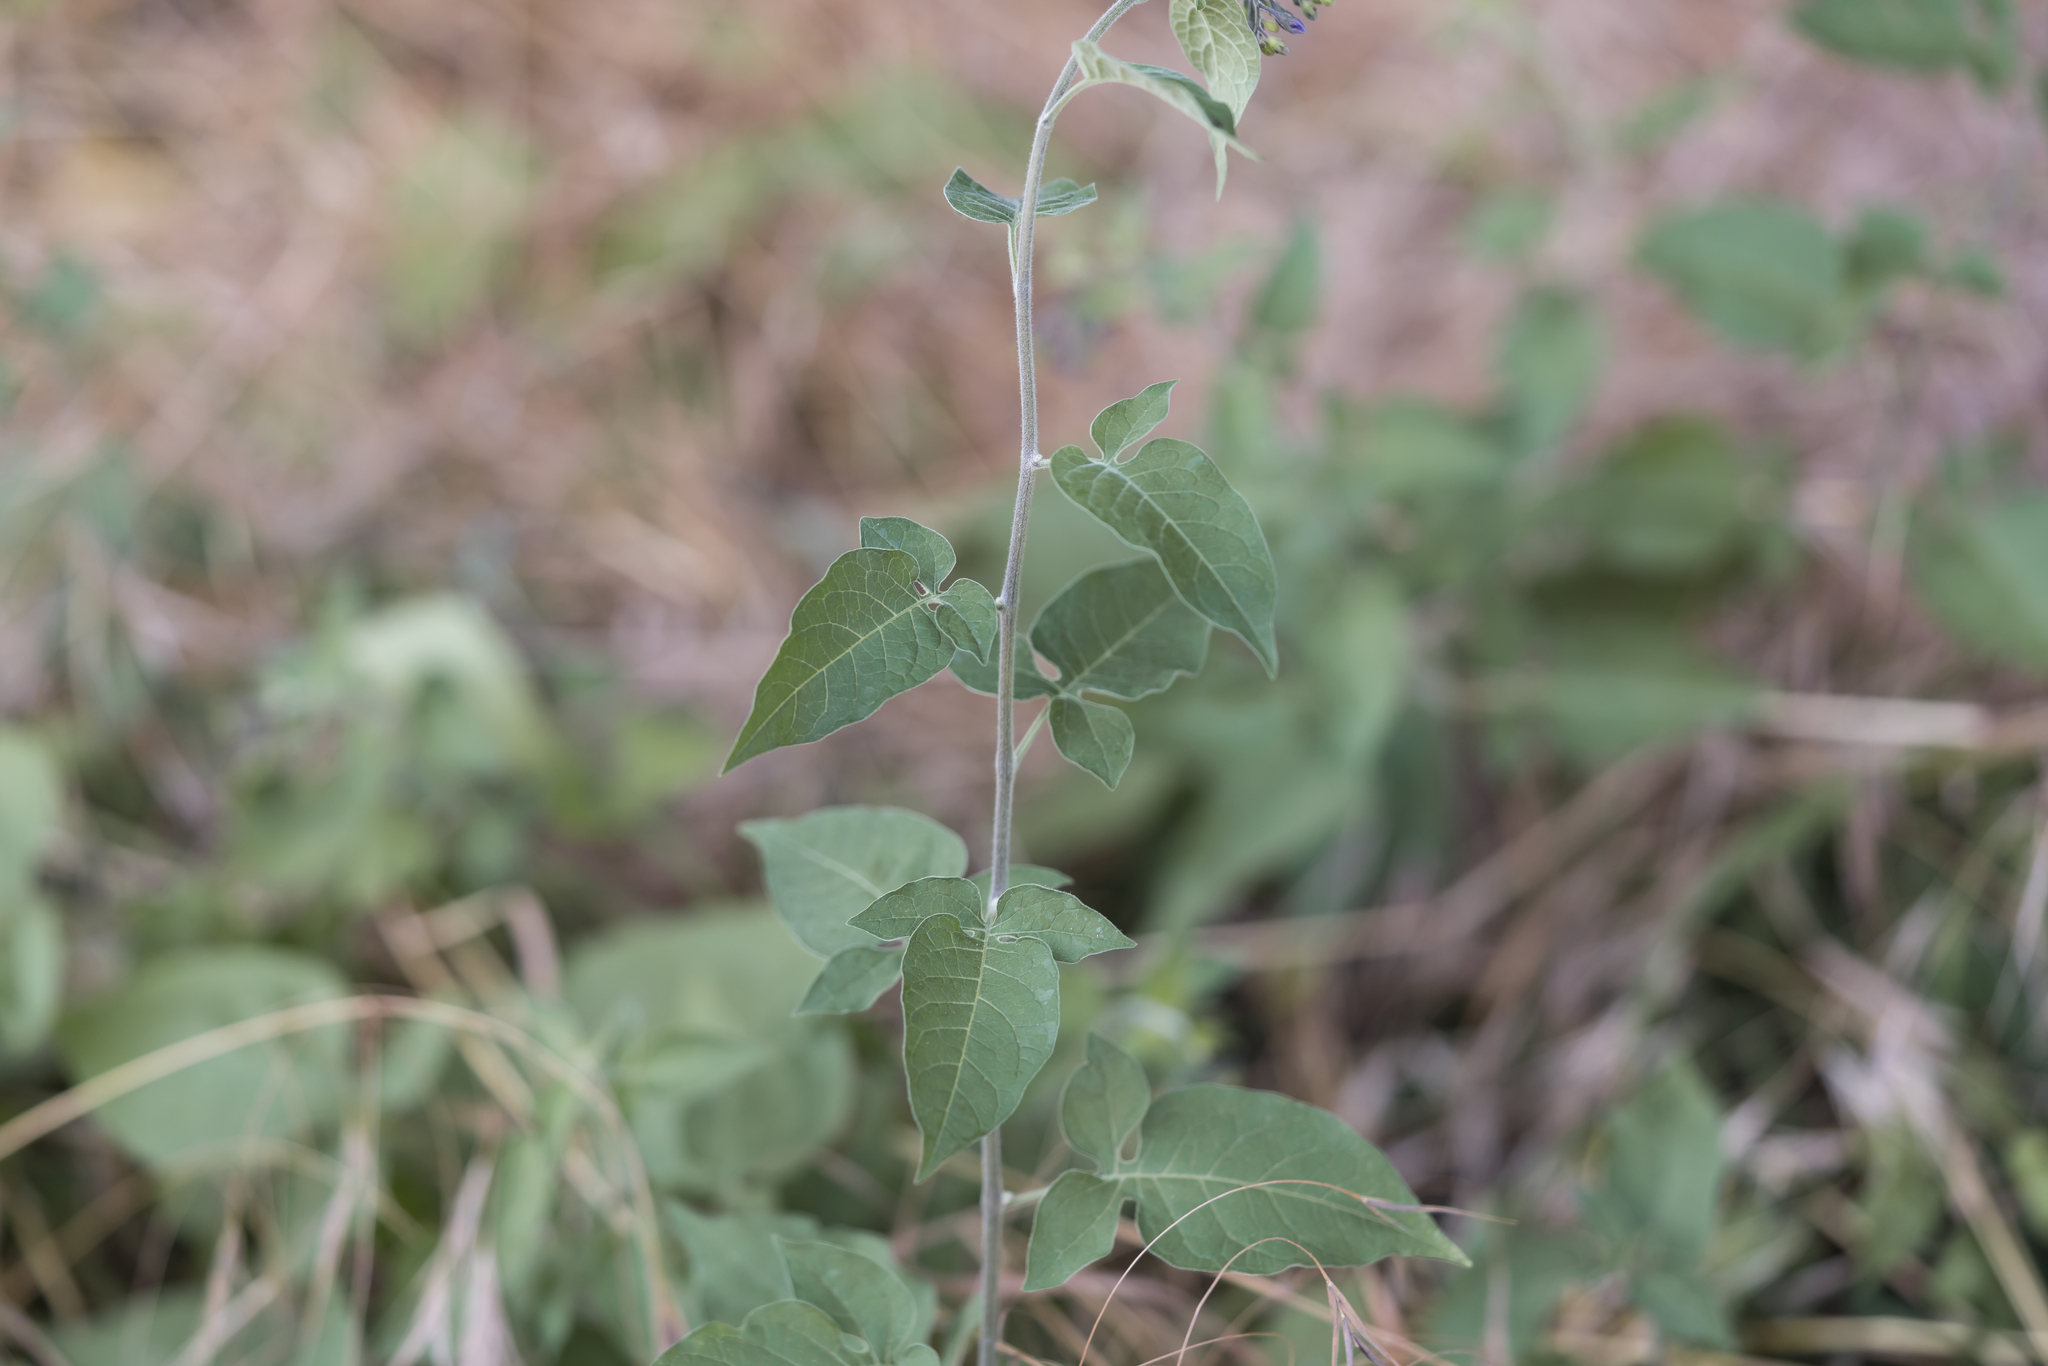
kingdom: Plantae
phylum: Tracheophyta
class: Magnoliopsida
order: Solanales
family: Solanaceae
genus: Solanum
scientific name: Solanum dulcamara
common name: Climbing nightshade
